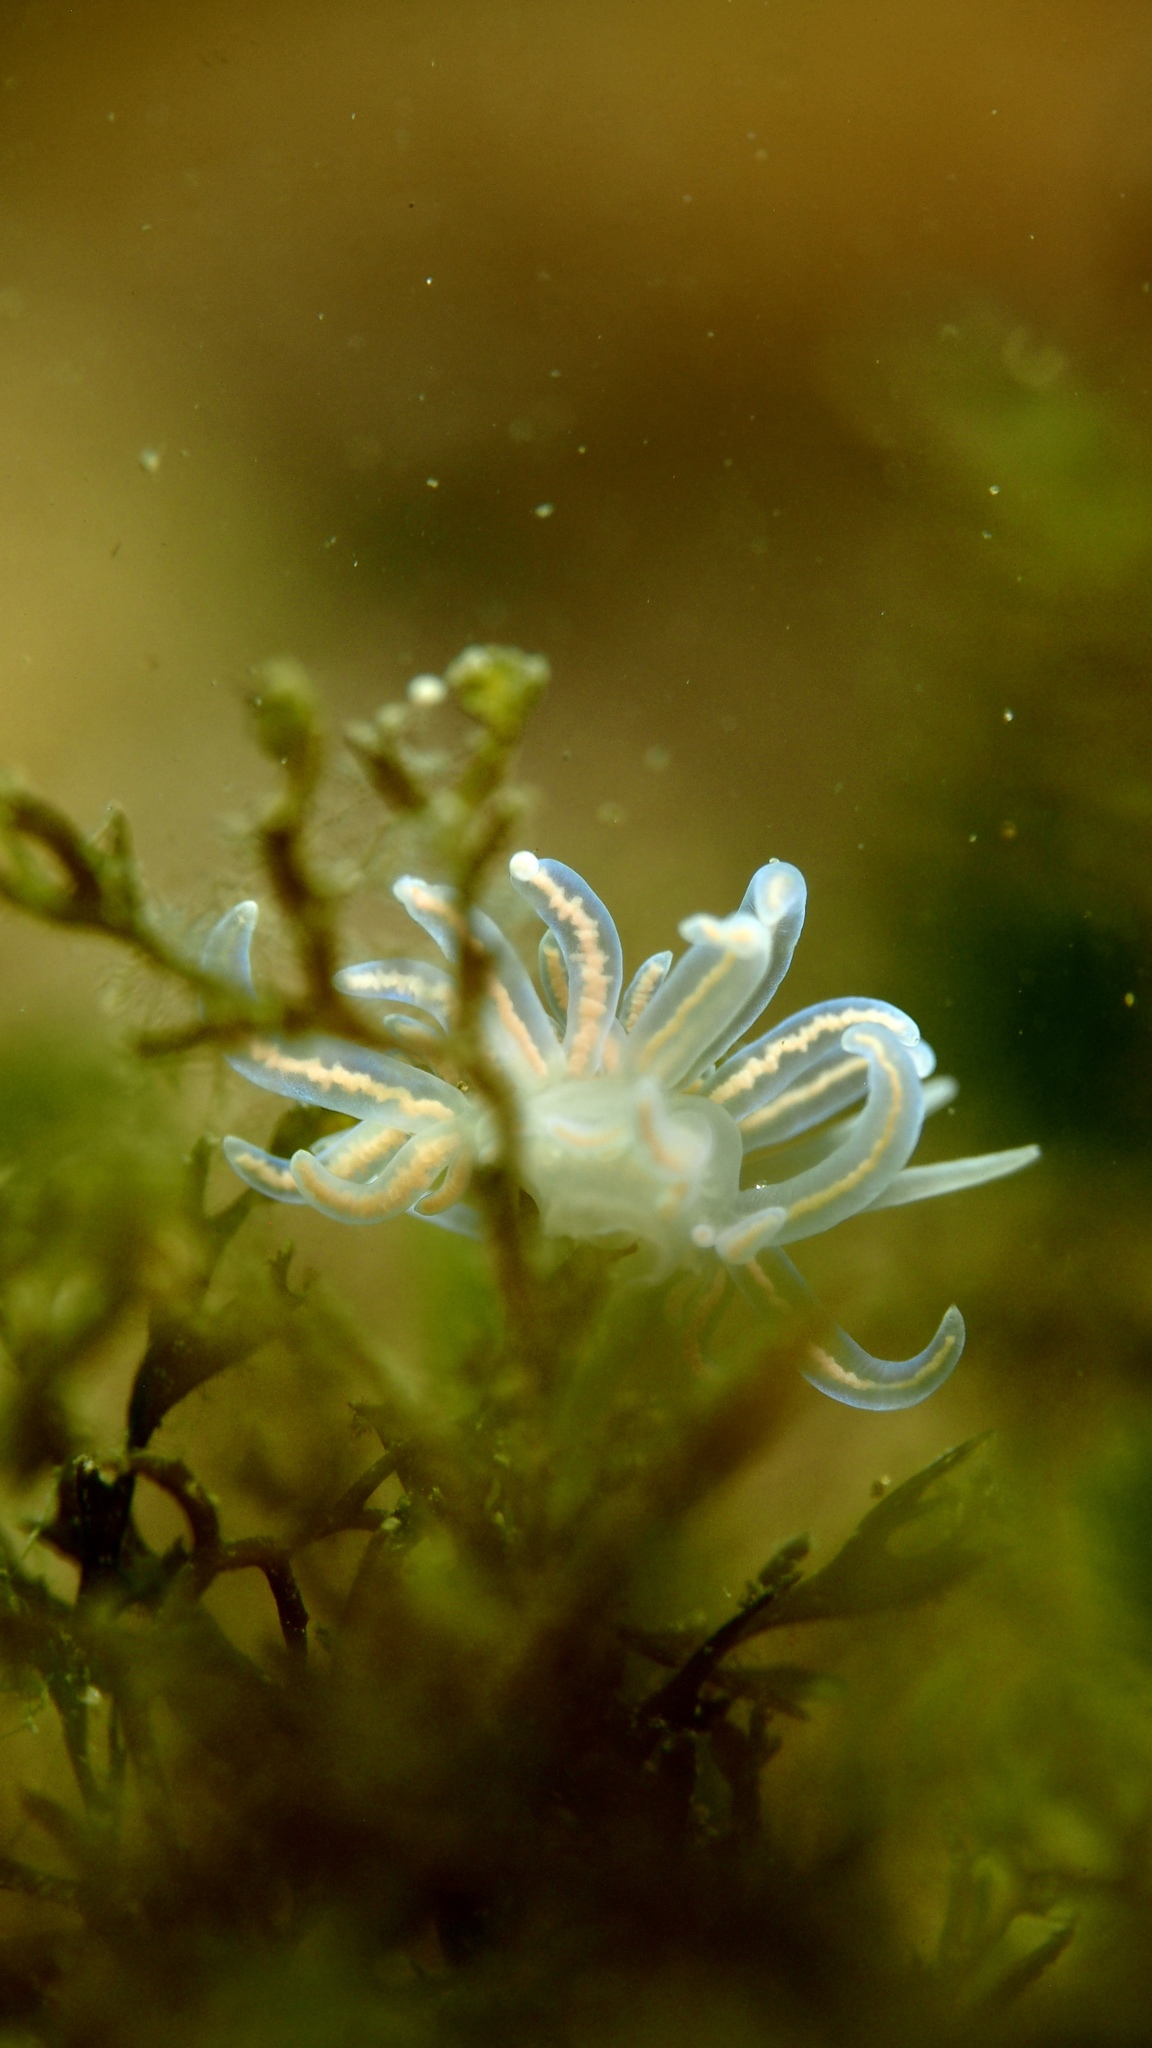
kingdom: Animalia
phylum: Mollusca
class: Gastropoda
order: Nudibranchia
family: Myrrhinidae
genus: Phyllodesmium
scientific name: Phyllodesmium serratum
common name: Coral nudibranch
